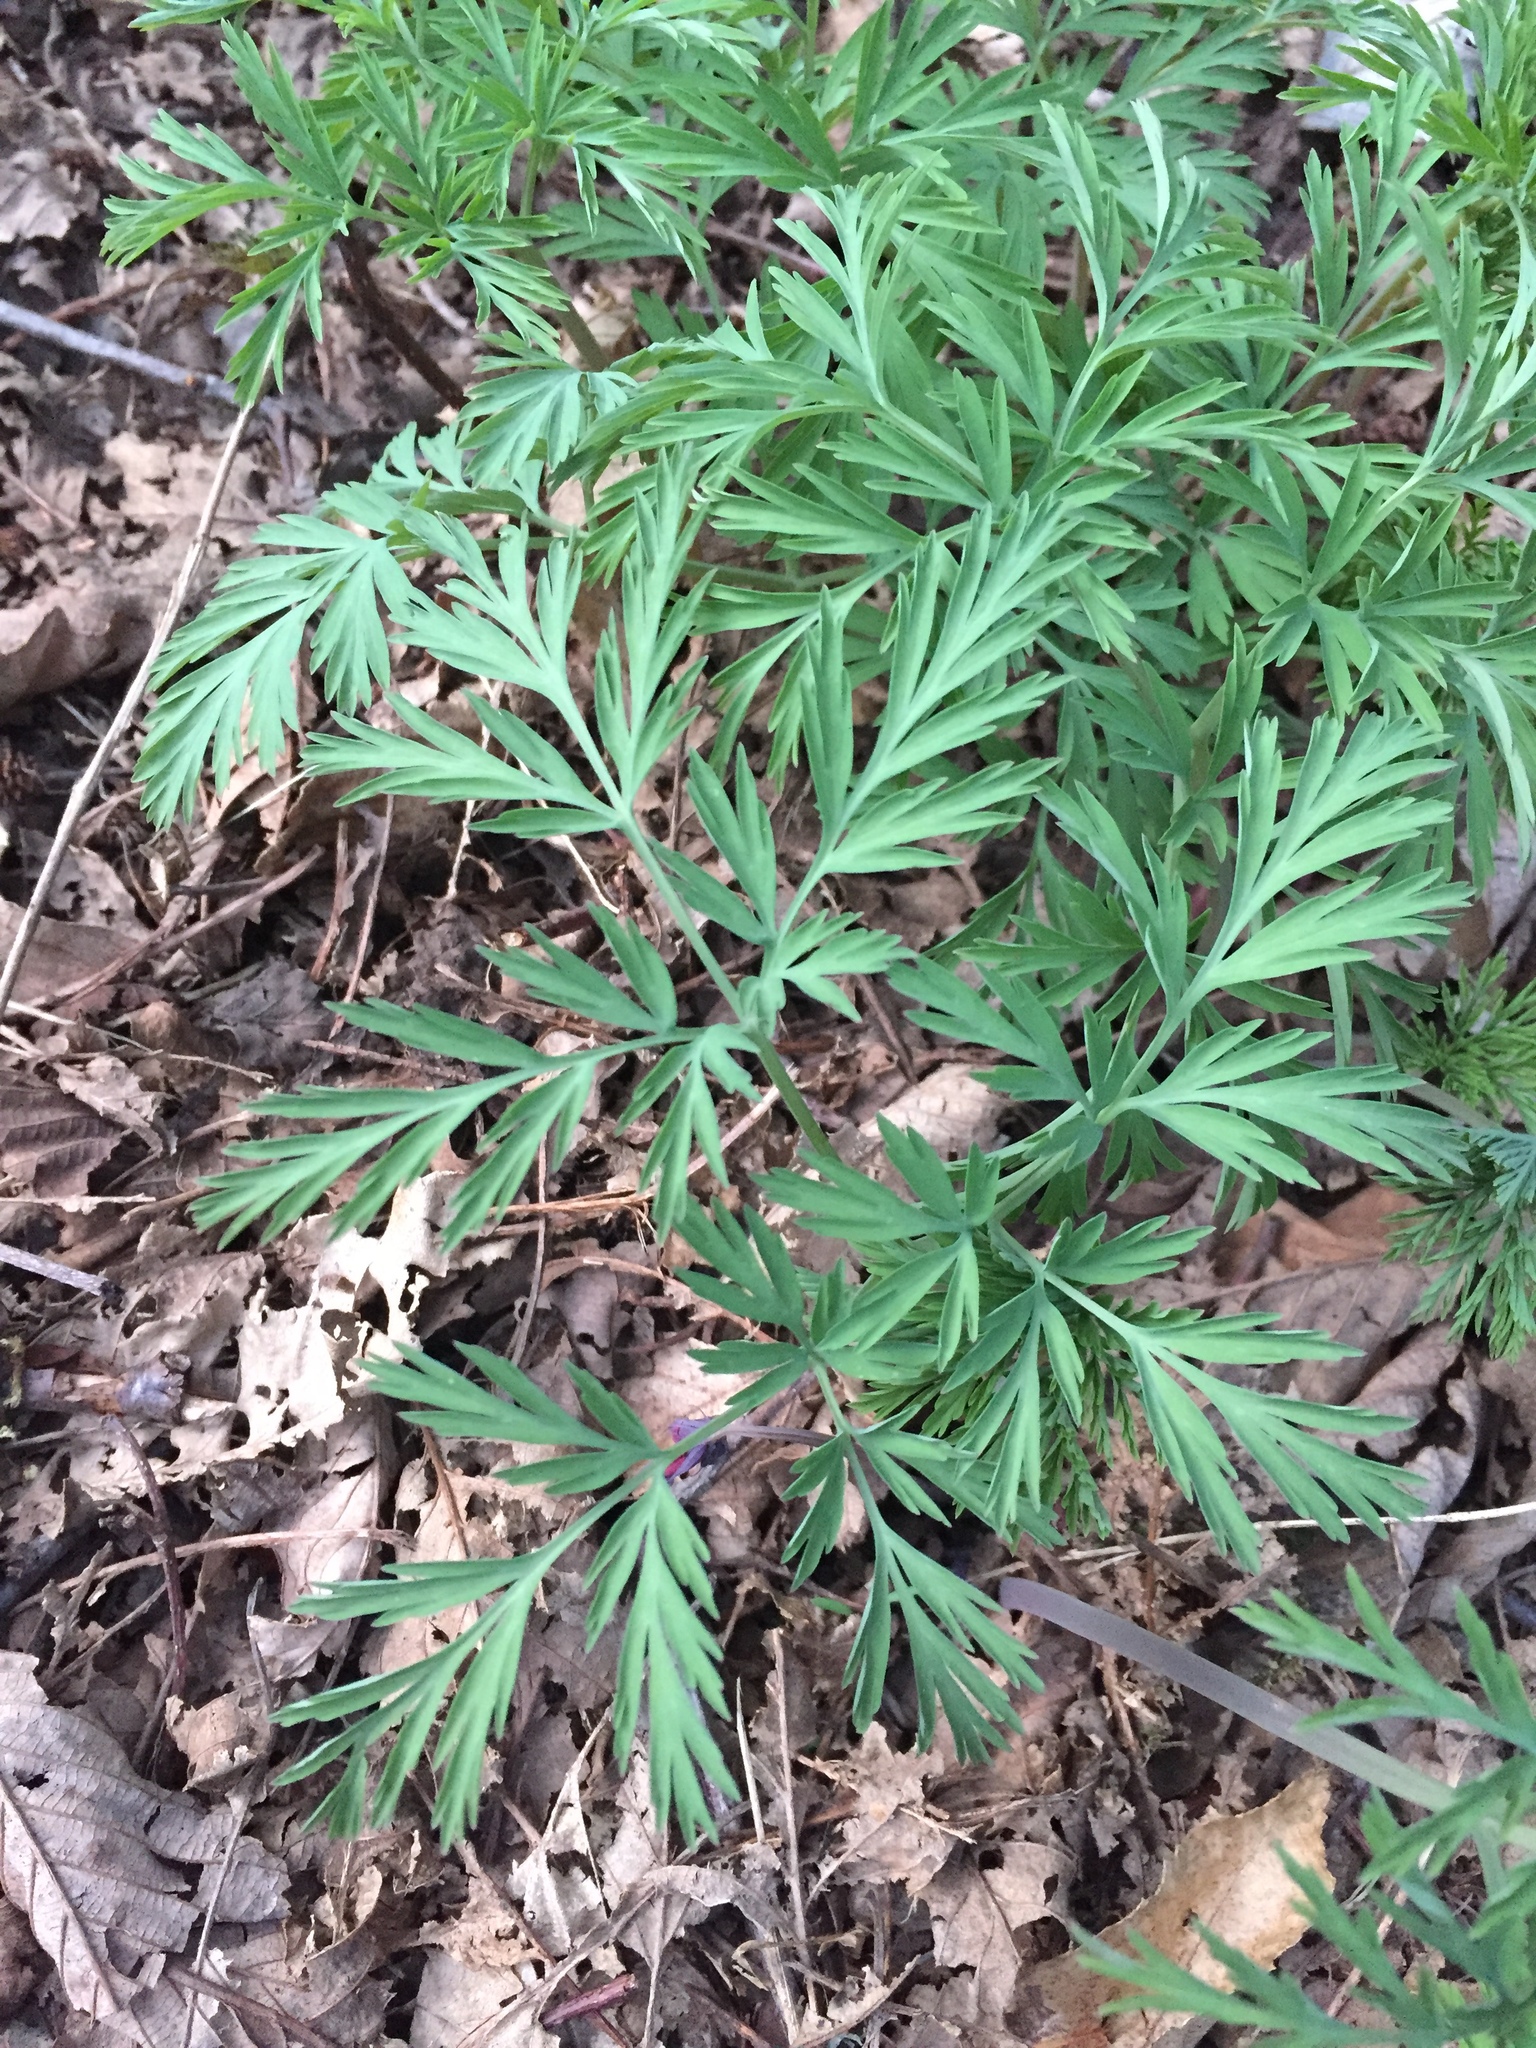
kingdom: Plantae
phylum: Tracheophyta
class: Magnoliopsida
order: Ranunculales
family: Papaveraceae
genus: Dicentra
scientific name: Dicentra formosa
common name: Bleeding-heart
